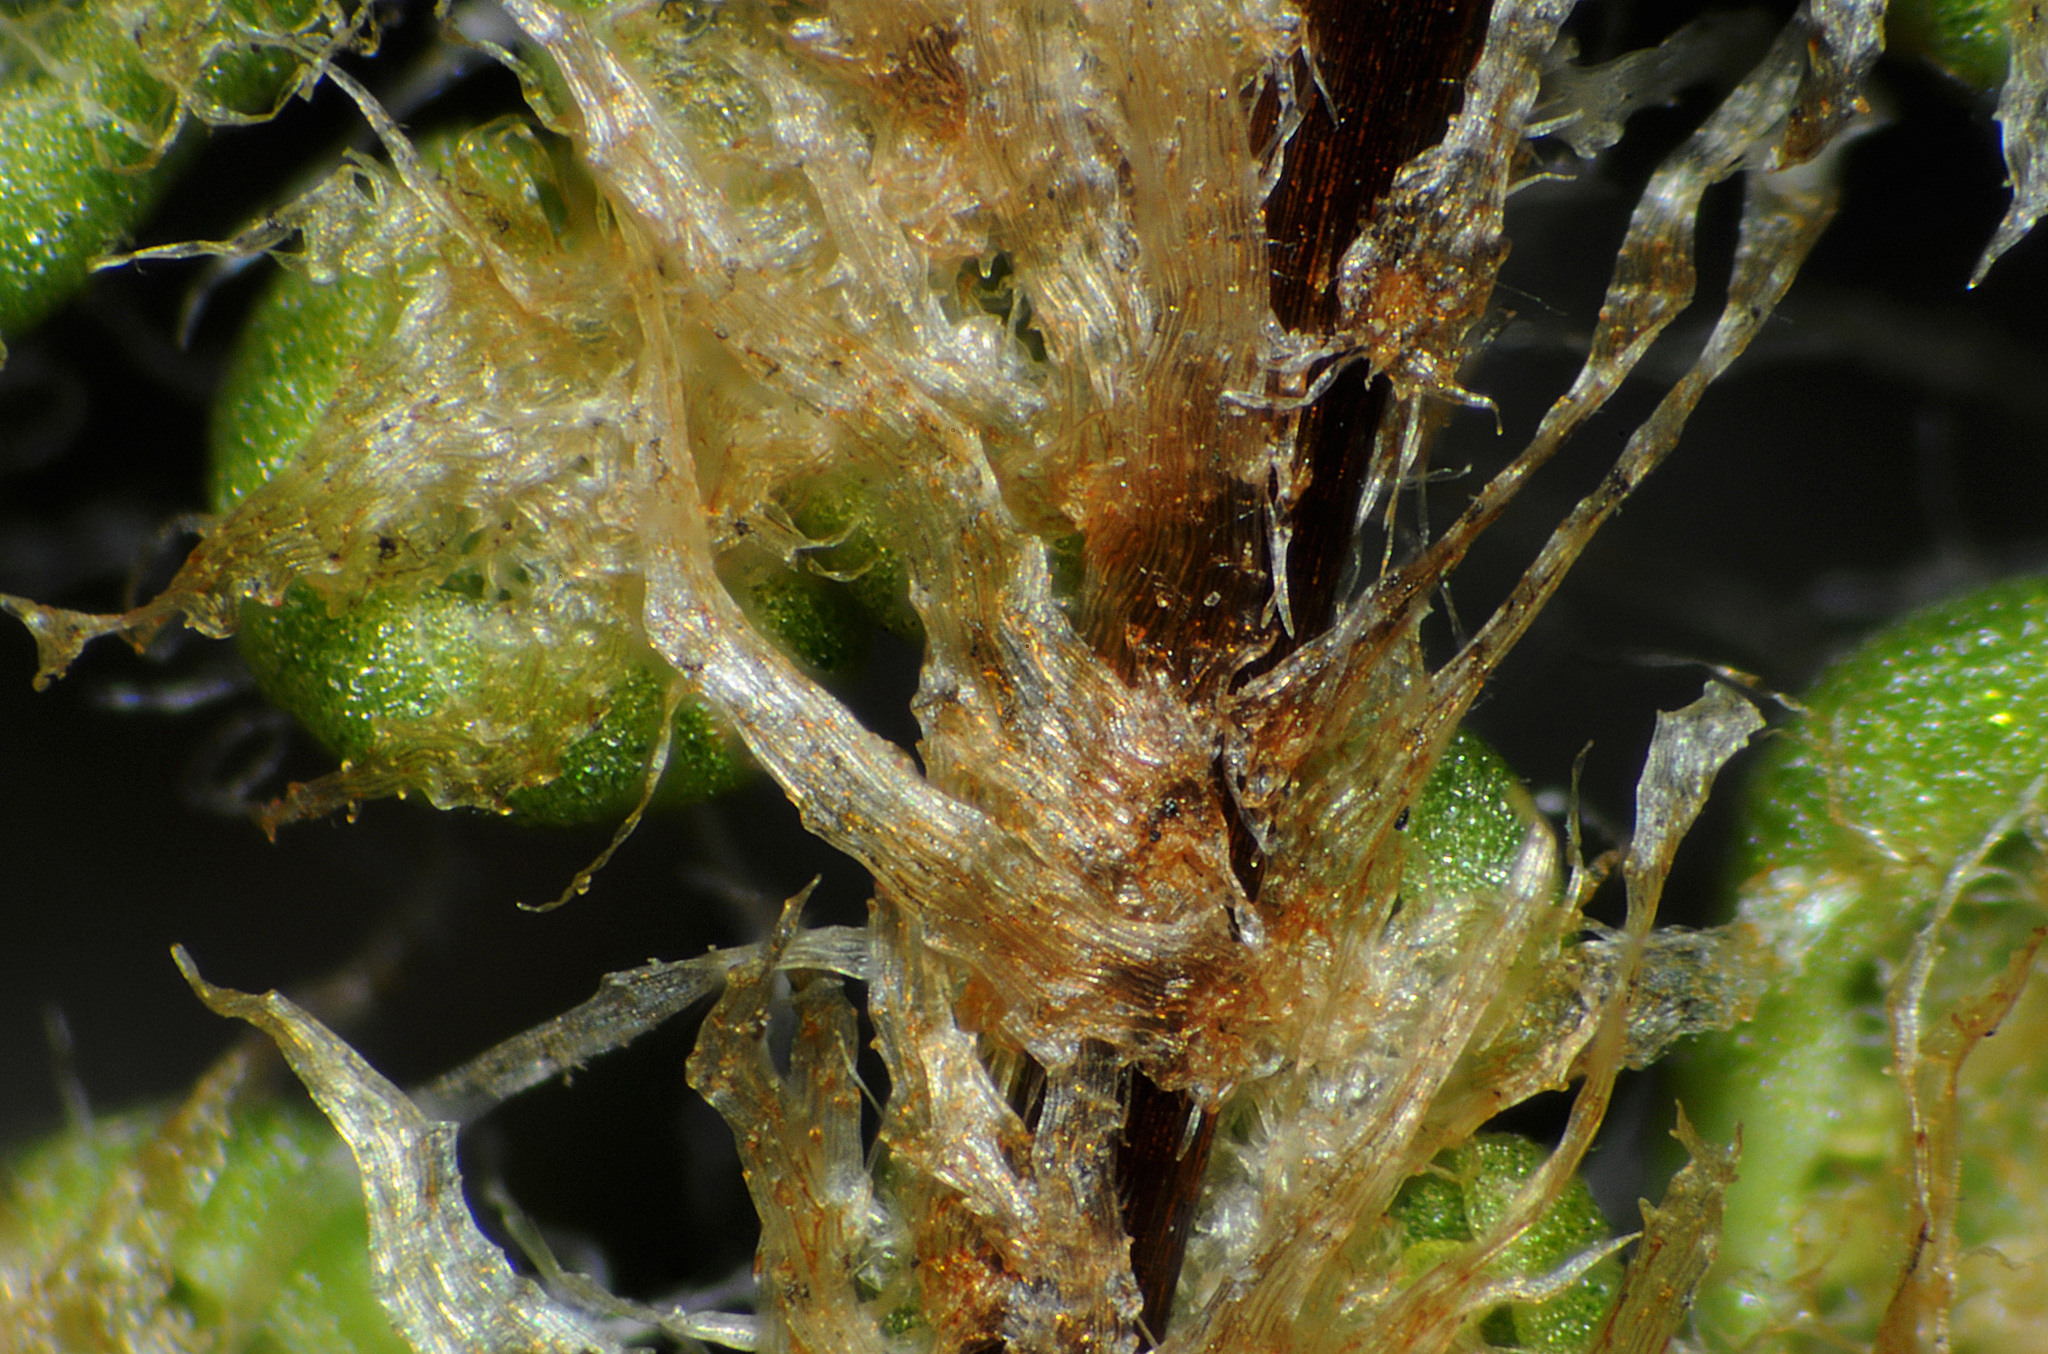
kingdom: Plantae
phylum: Tracheophyta
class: Polypodiopsida
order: Polypodiales
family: Pteridaceae
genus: Myriopteris
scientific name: Myriopteris intertexta
